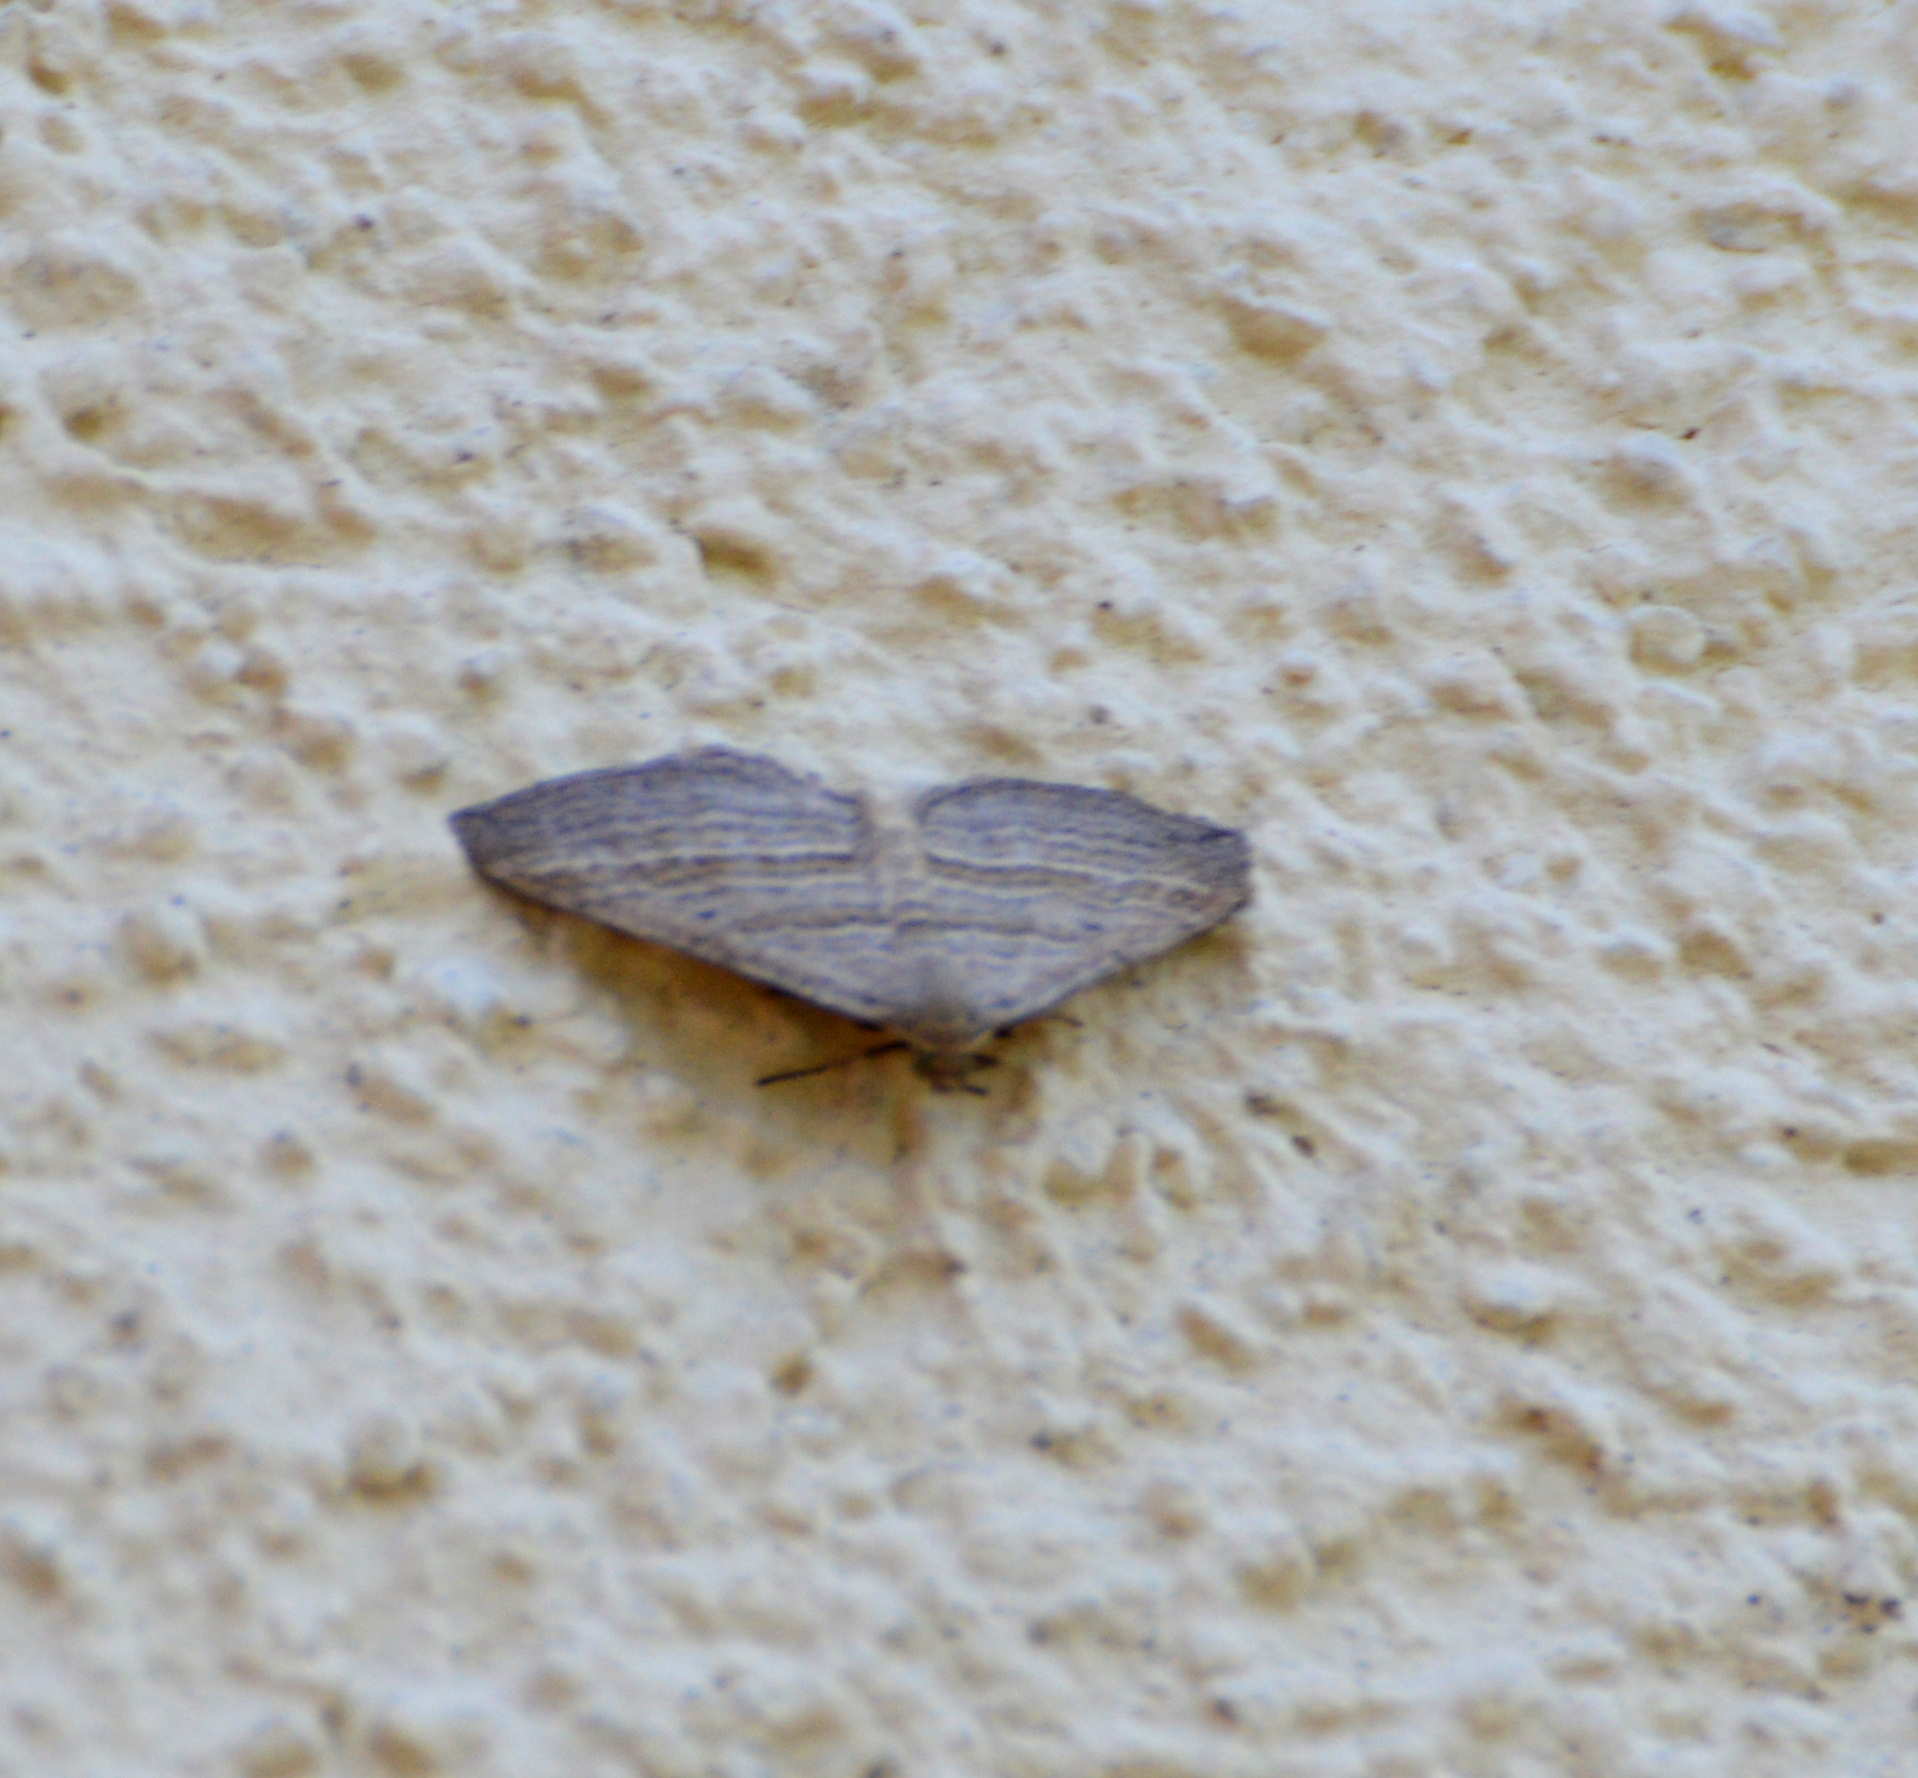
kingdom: Animalia
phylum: Arthropoda
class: Insecta
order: Lepidoptera
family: Geometridae
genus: Phibalapteryx
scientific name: Phibalapteryx virgata
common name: Oblique striped
